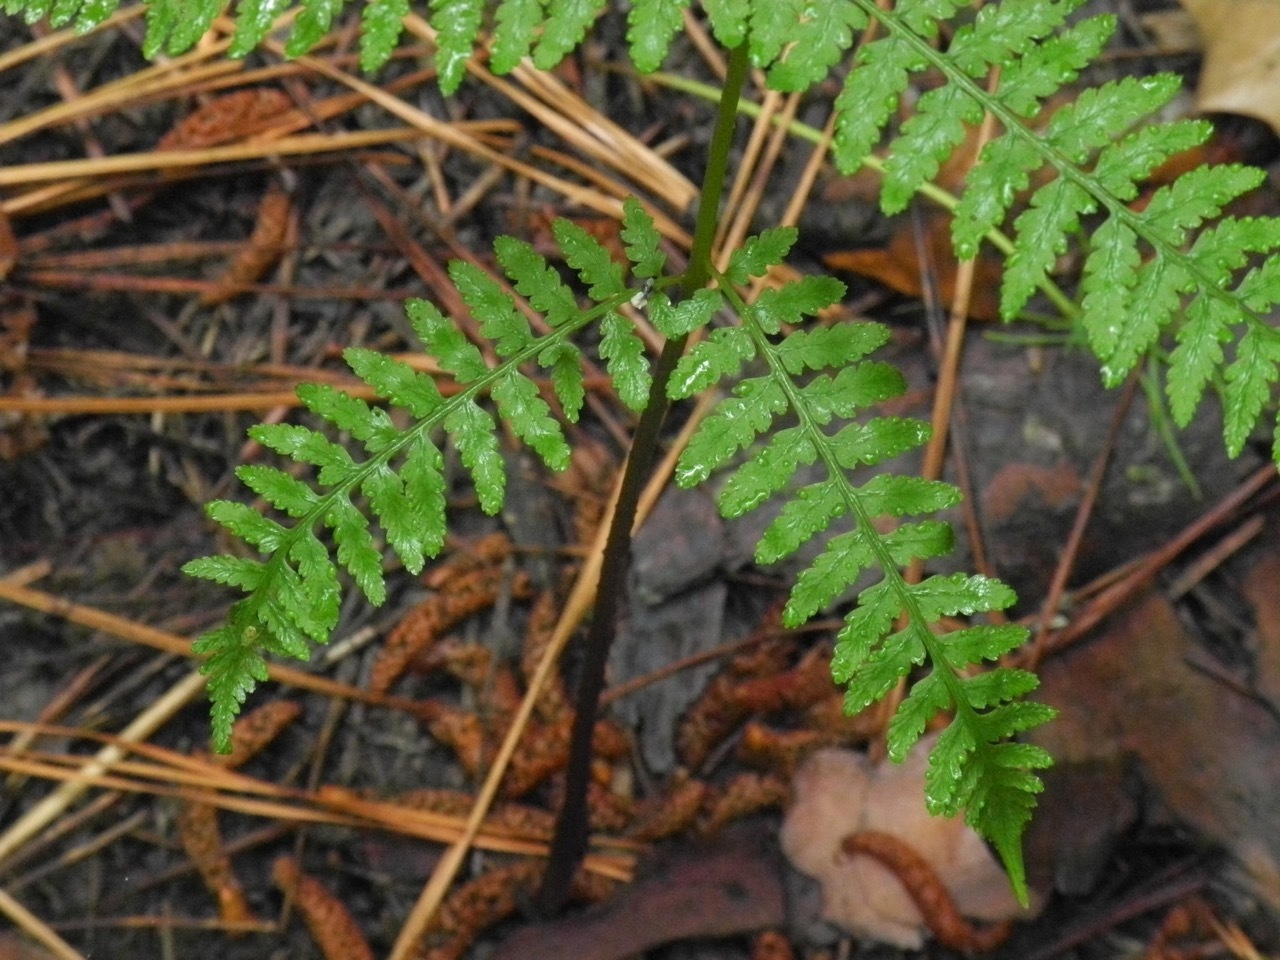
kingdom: Plantae
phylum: Tracheophyta
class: Polypodiopsida
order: Polypodiales
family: Athyriaceae
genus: Athyrium
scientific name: Athyrium asplenioides
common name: Southern lady fern
